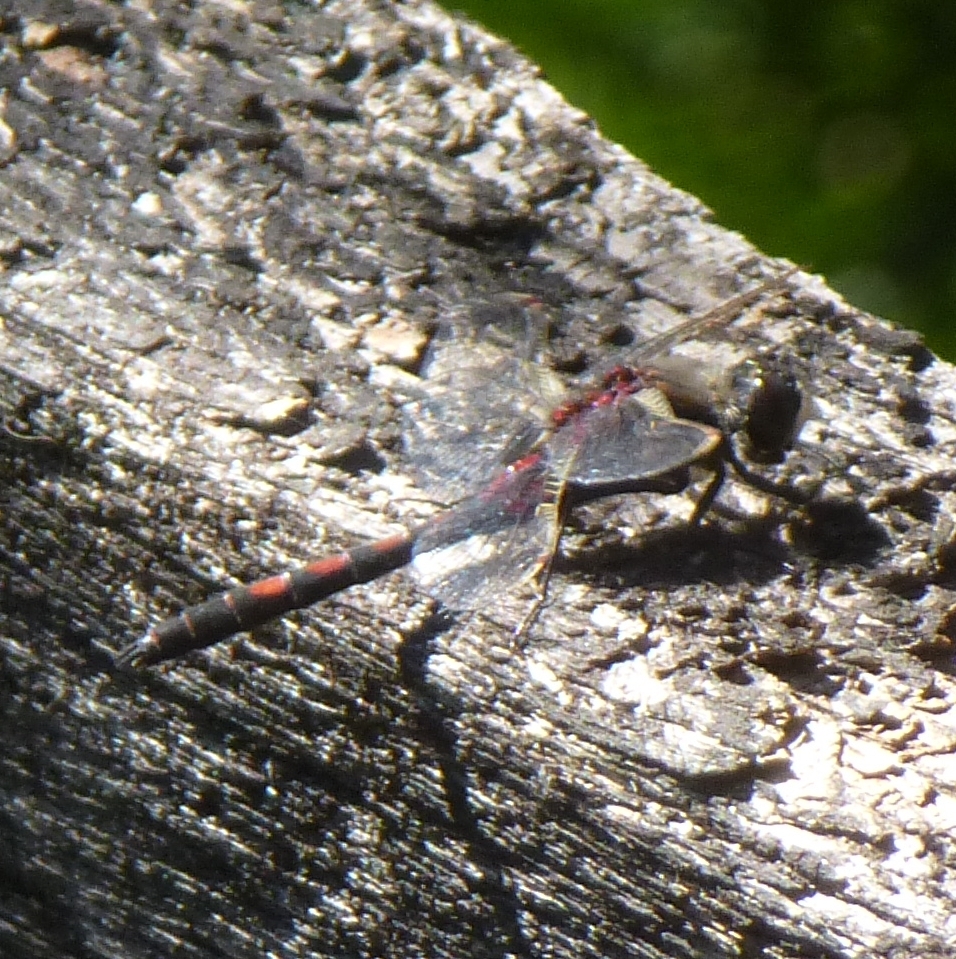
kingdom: Animalia
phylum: Arthropoda
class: Insecta
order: Odonata
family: Libellulidae
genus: Leucorrhinia
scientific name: Leucorrhinia rubicunda
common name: Ruby whiteface
